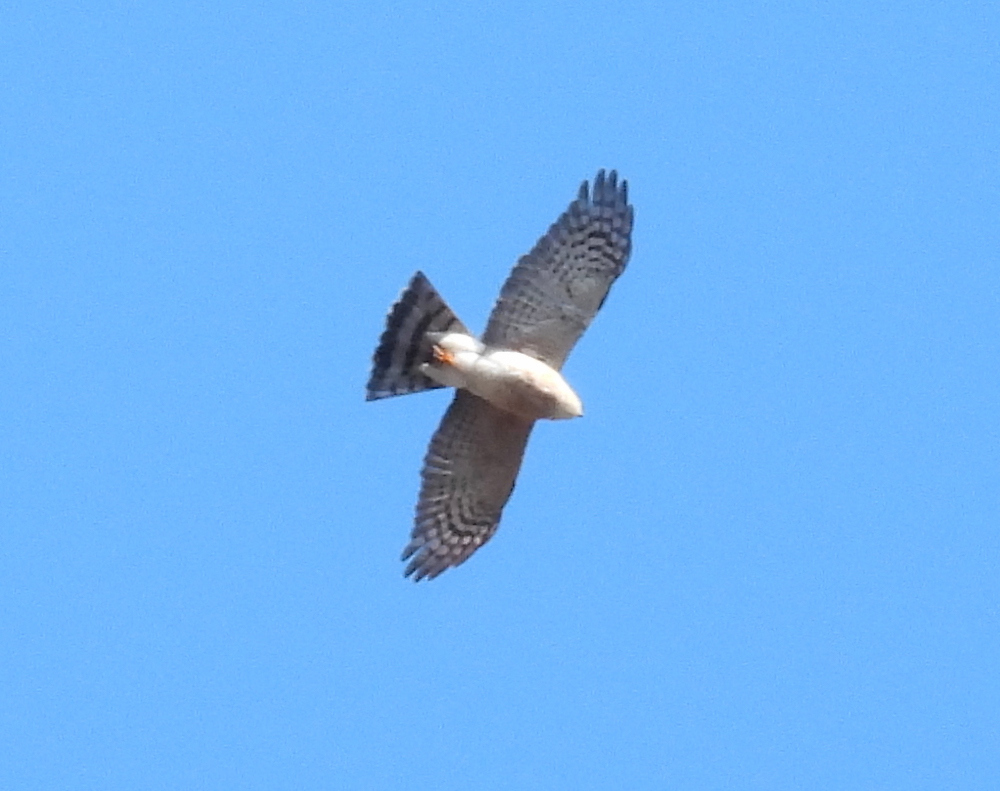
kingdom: Animalia
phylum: Chordata
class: Aves
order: Accipitriformes
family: Accipitridae
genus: Accipiter
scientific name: Accipiter striatus
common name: Sharp-shinned hawk
